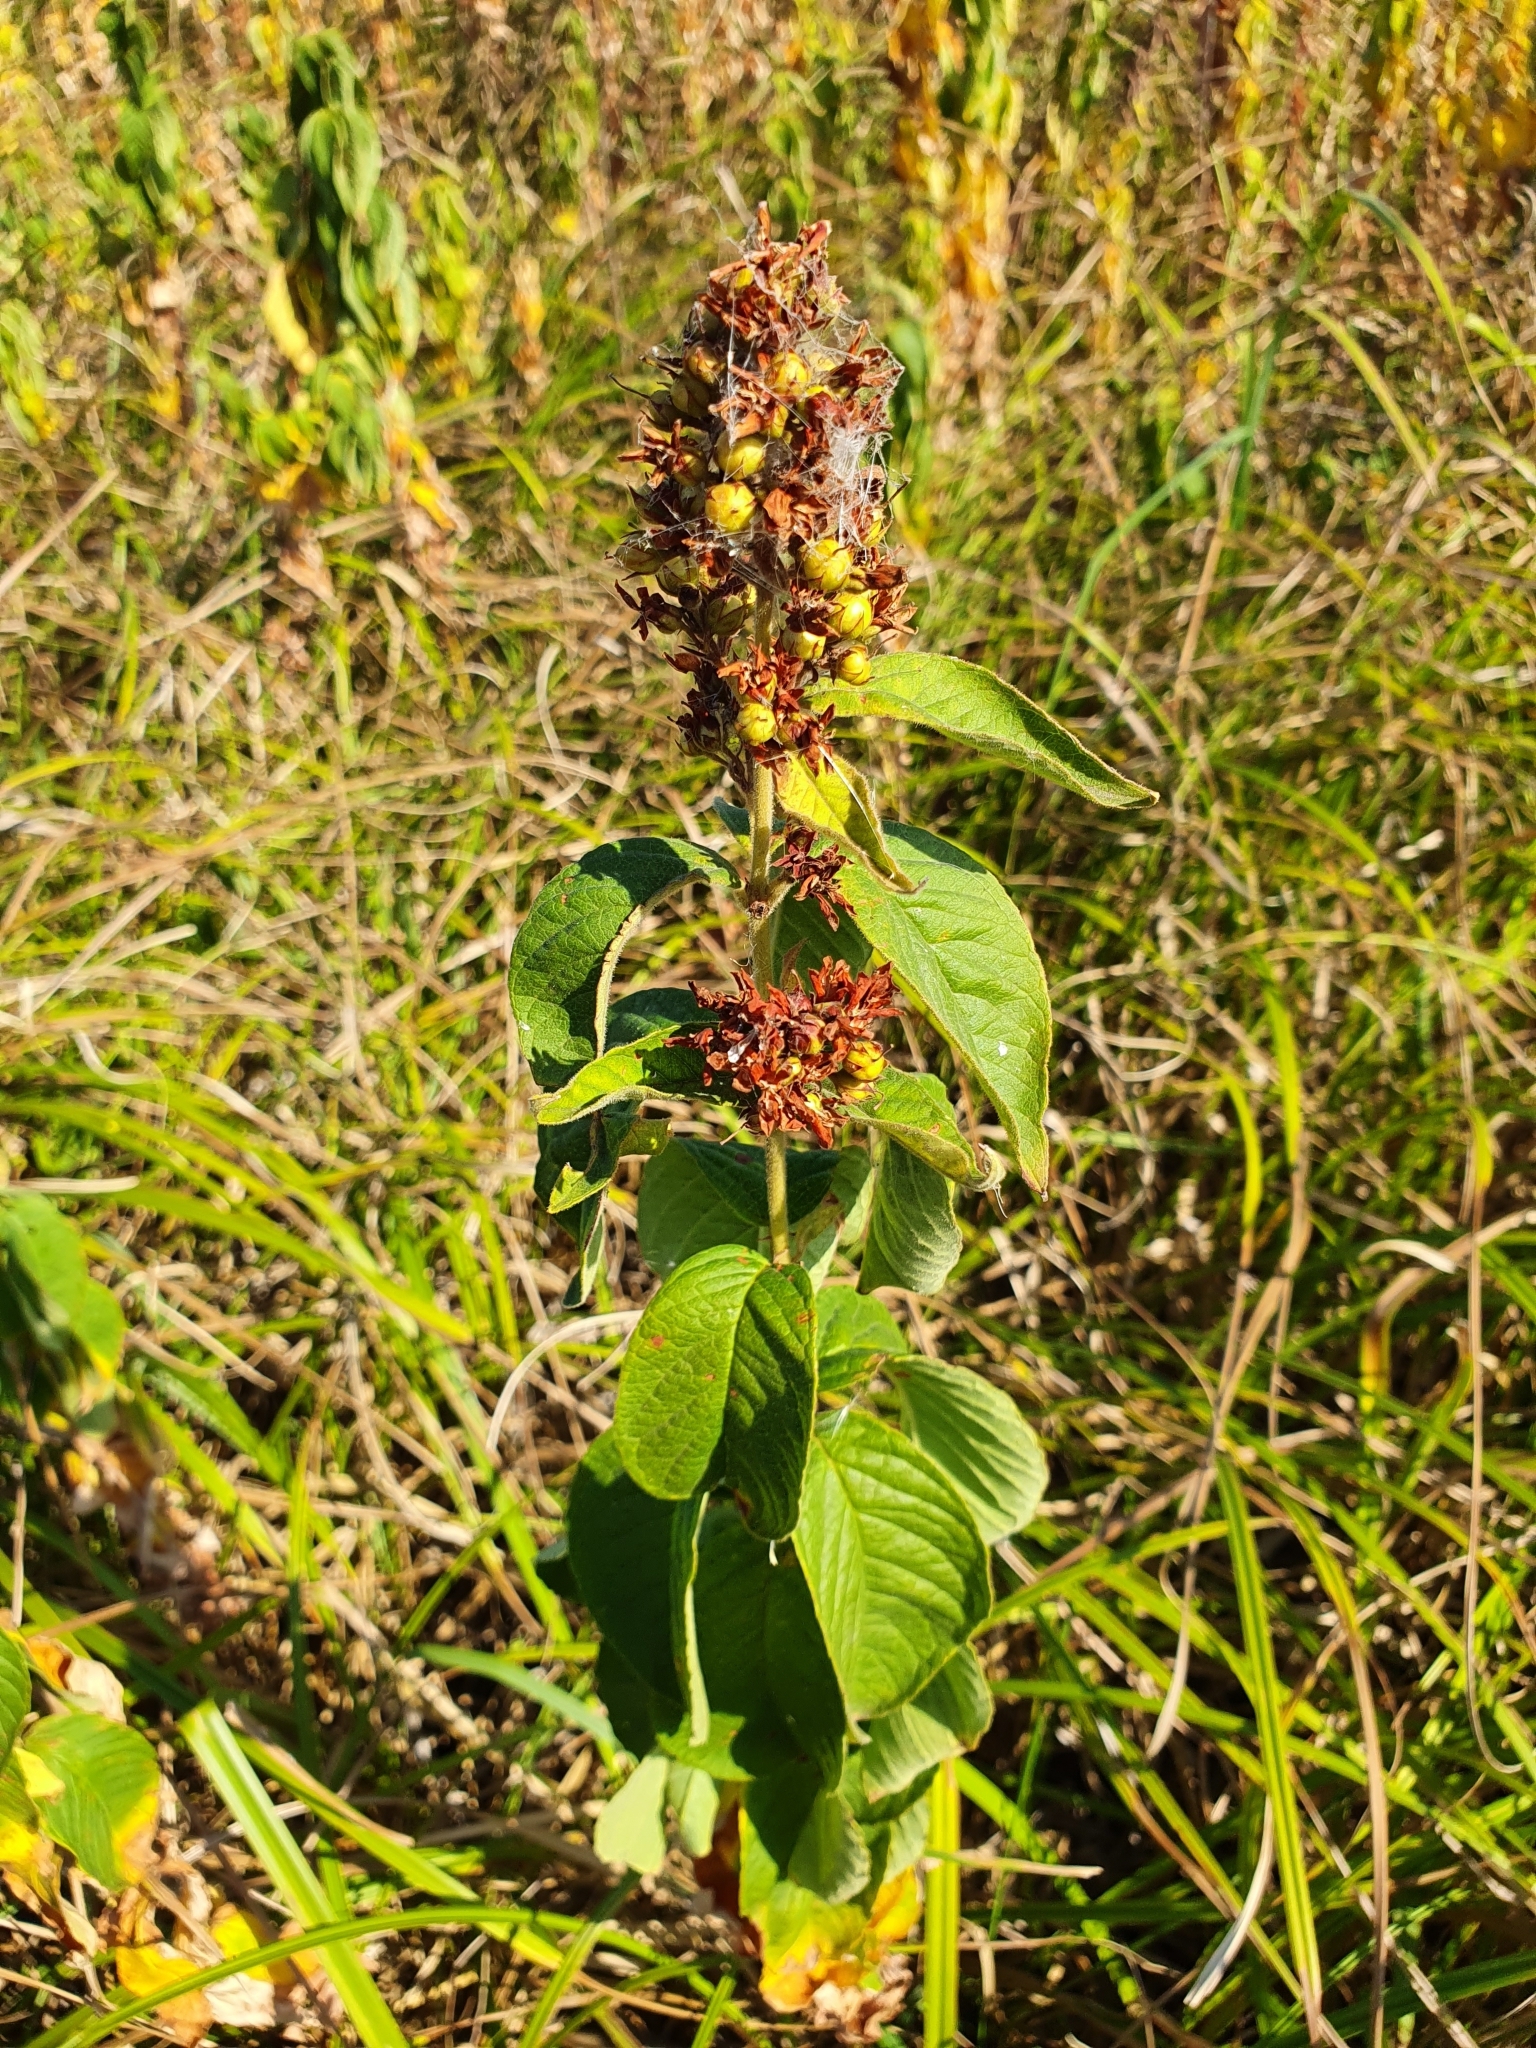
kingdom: Plantae
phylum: Tracheophyta
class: Magnoliopsida
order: Ericales
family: Primulaceae
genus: Lysimachia
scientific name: Lysimachia vulgaris
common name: Yellow loosestrife
